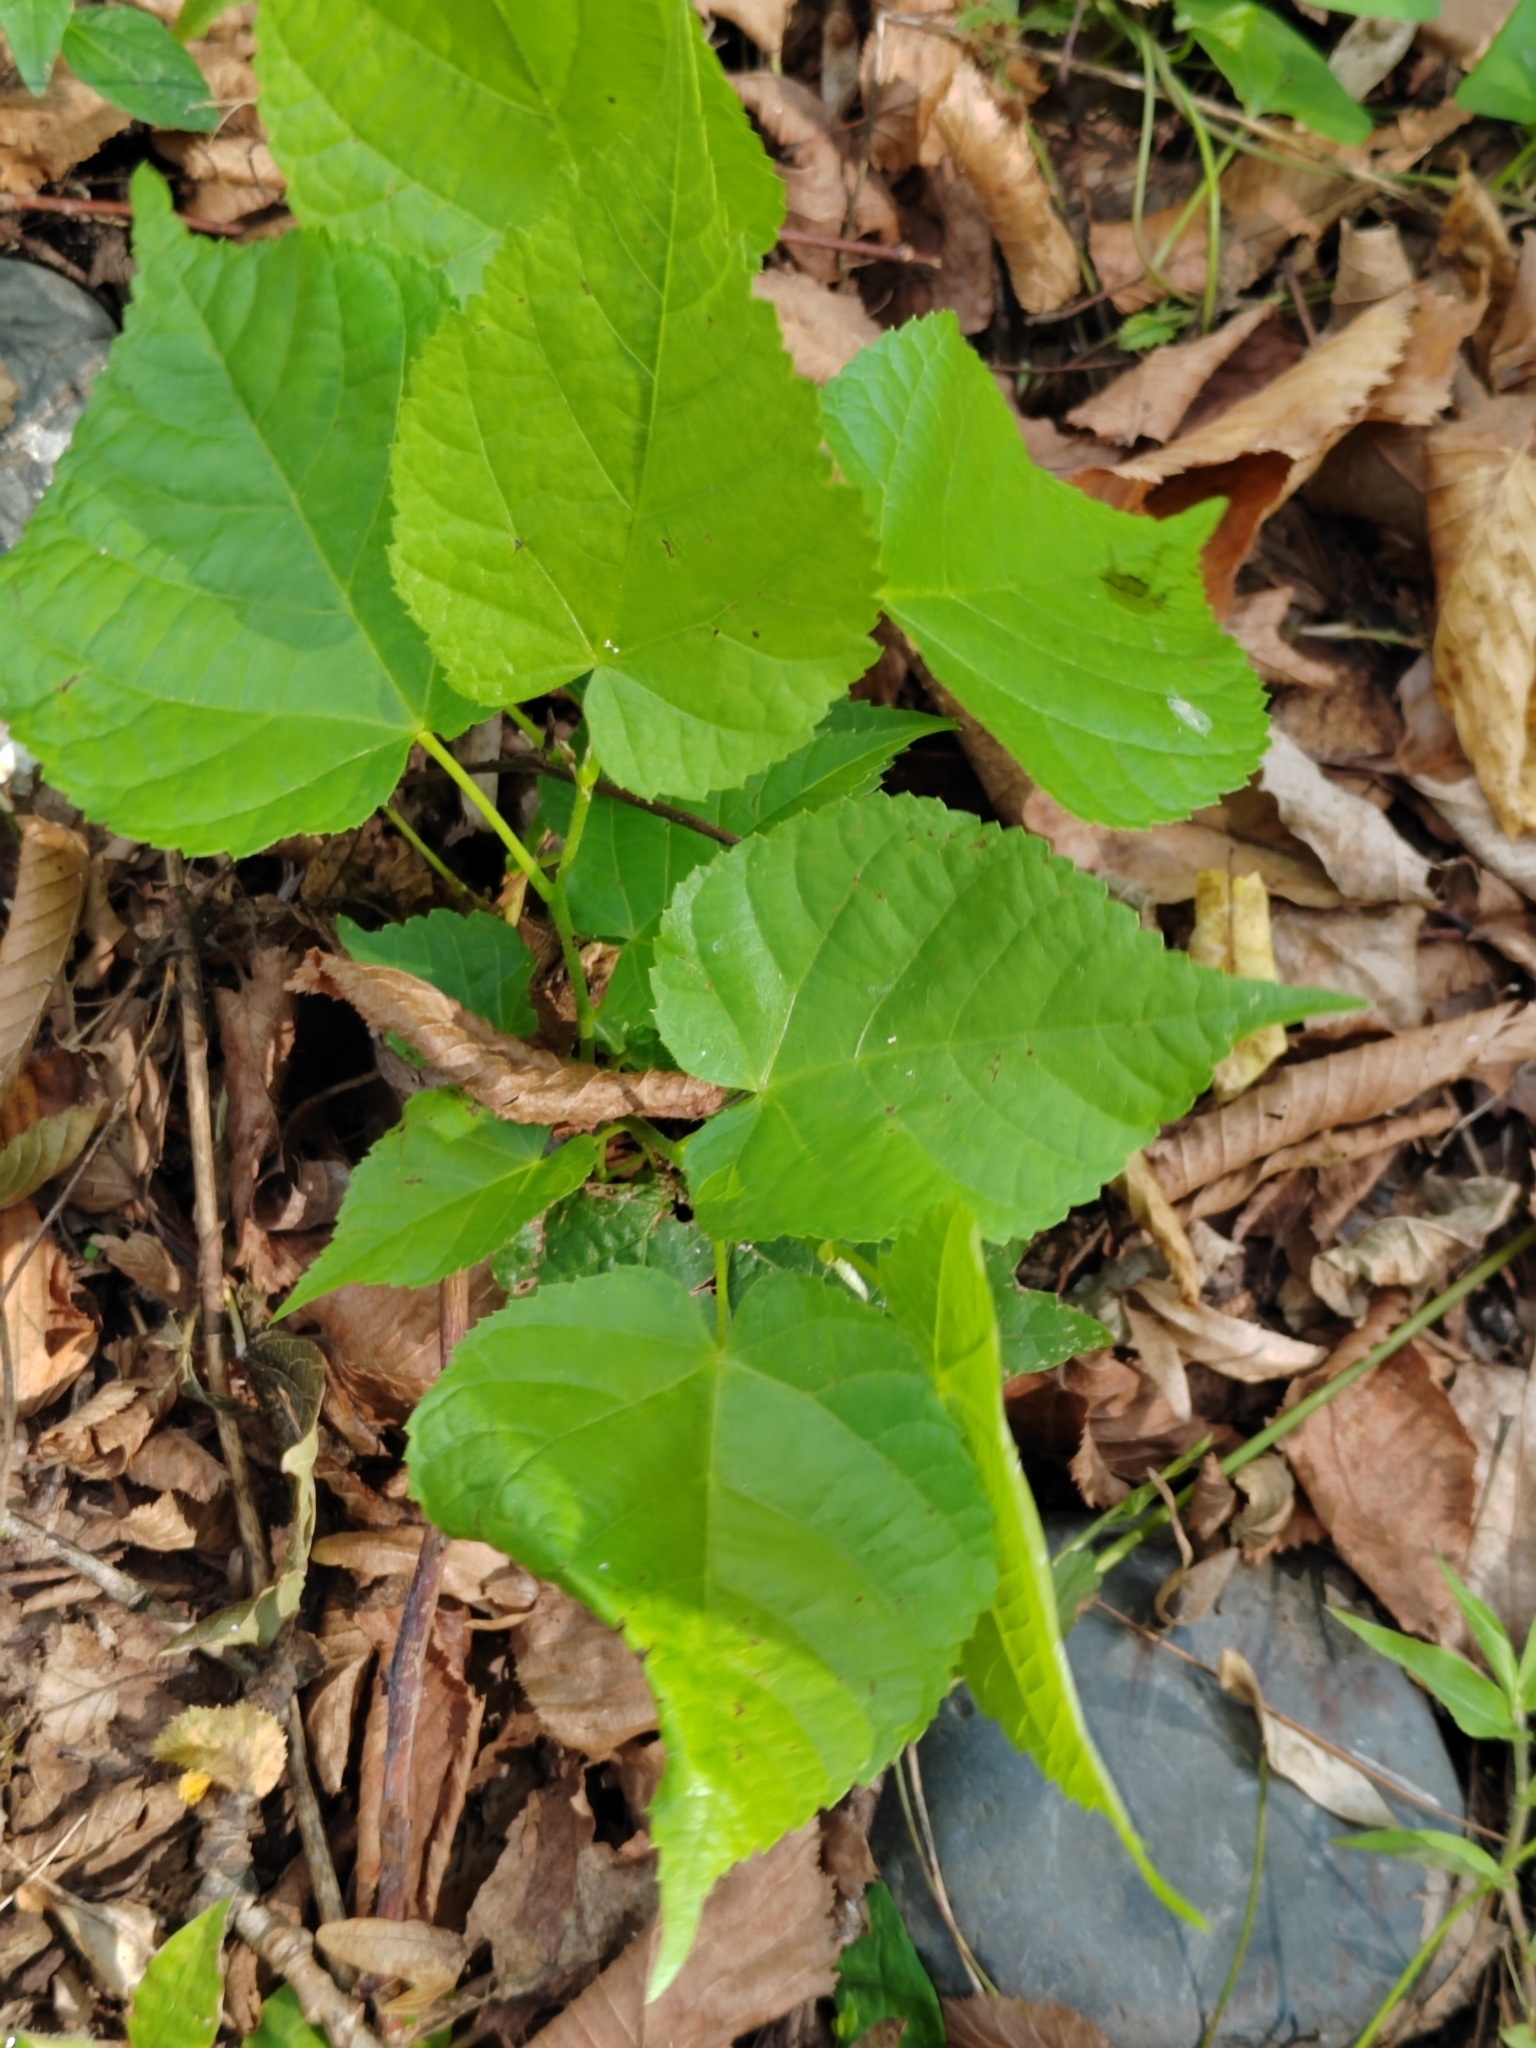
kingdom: Plantae
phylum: Tracheophyta
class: Magnoliopsida
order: Malvales
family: Malvaceae
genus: Tilia
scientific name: Tilia cordata
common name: Small-leaved lime
